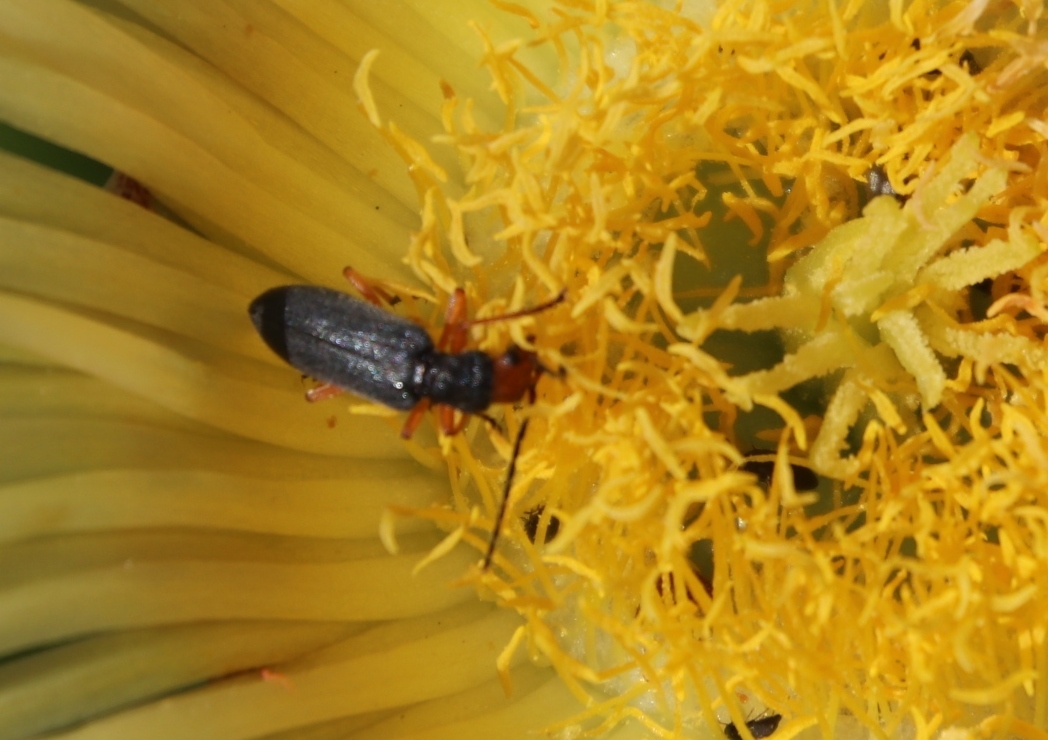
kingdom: Plantae
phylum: Tracheophyta
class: Magnoliopsida
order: Caryophyllales
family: Aizoaceae
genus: Carpobrotus
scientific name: Carpobrotus edulis
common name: Hottentot-fig
